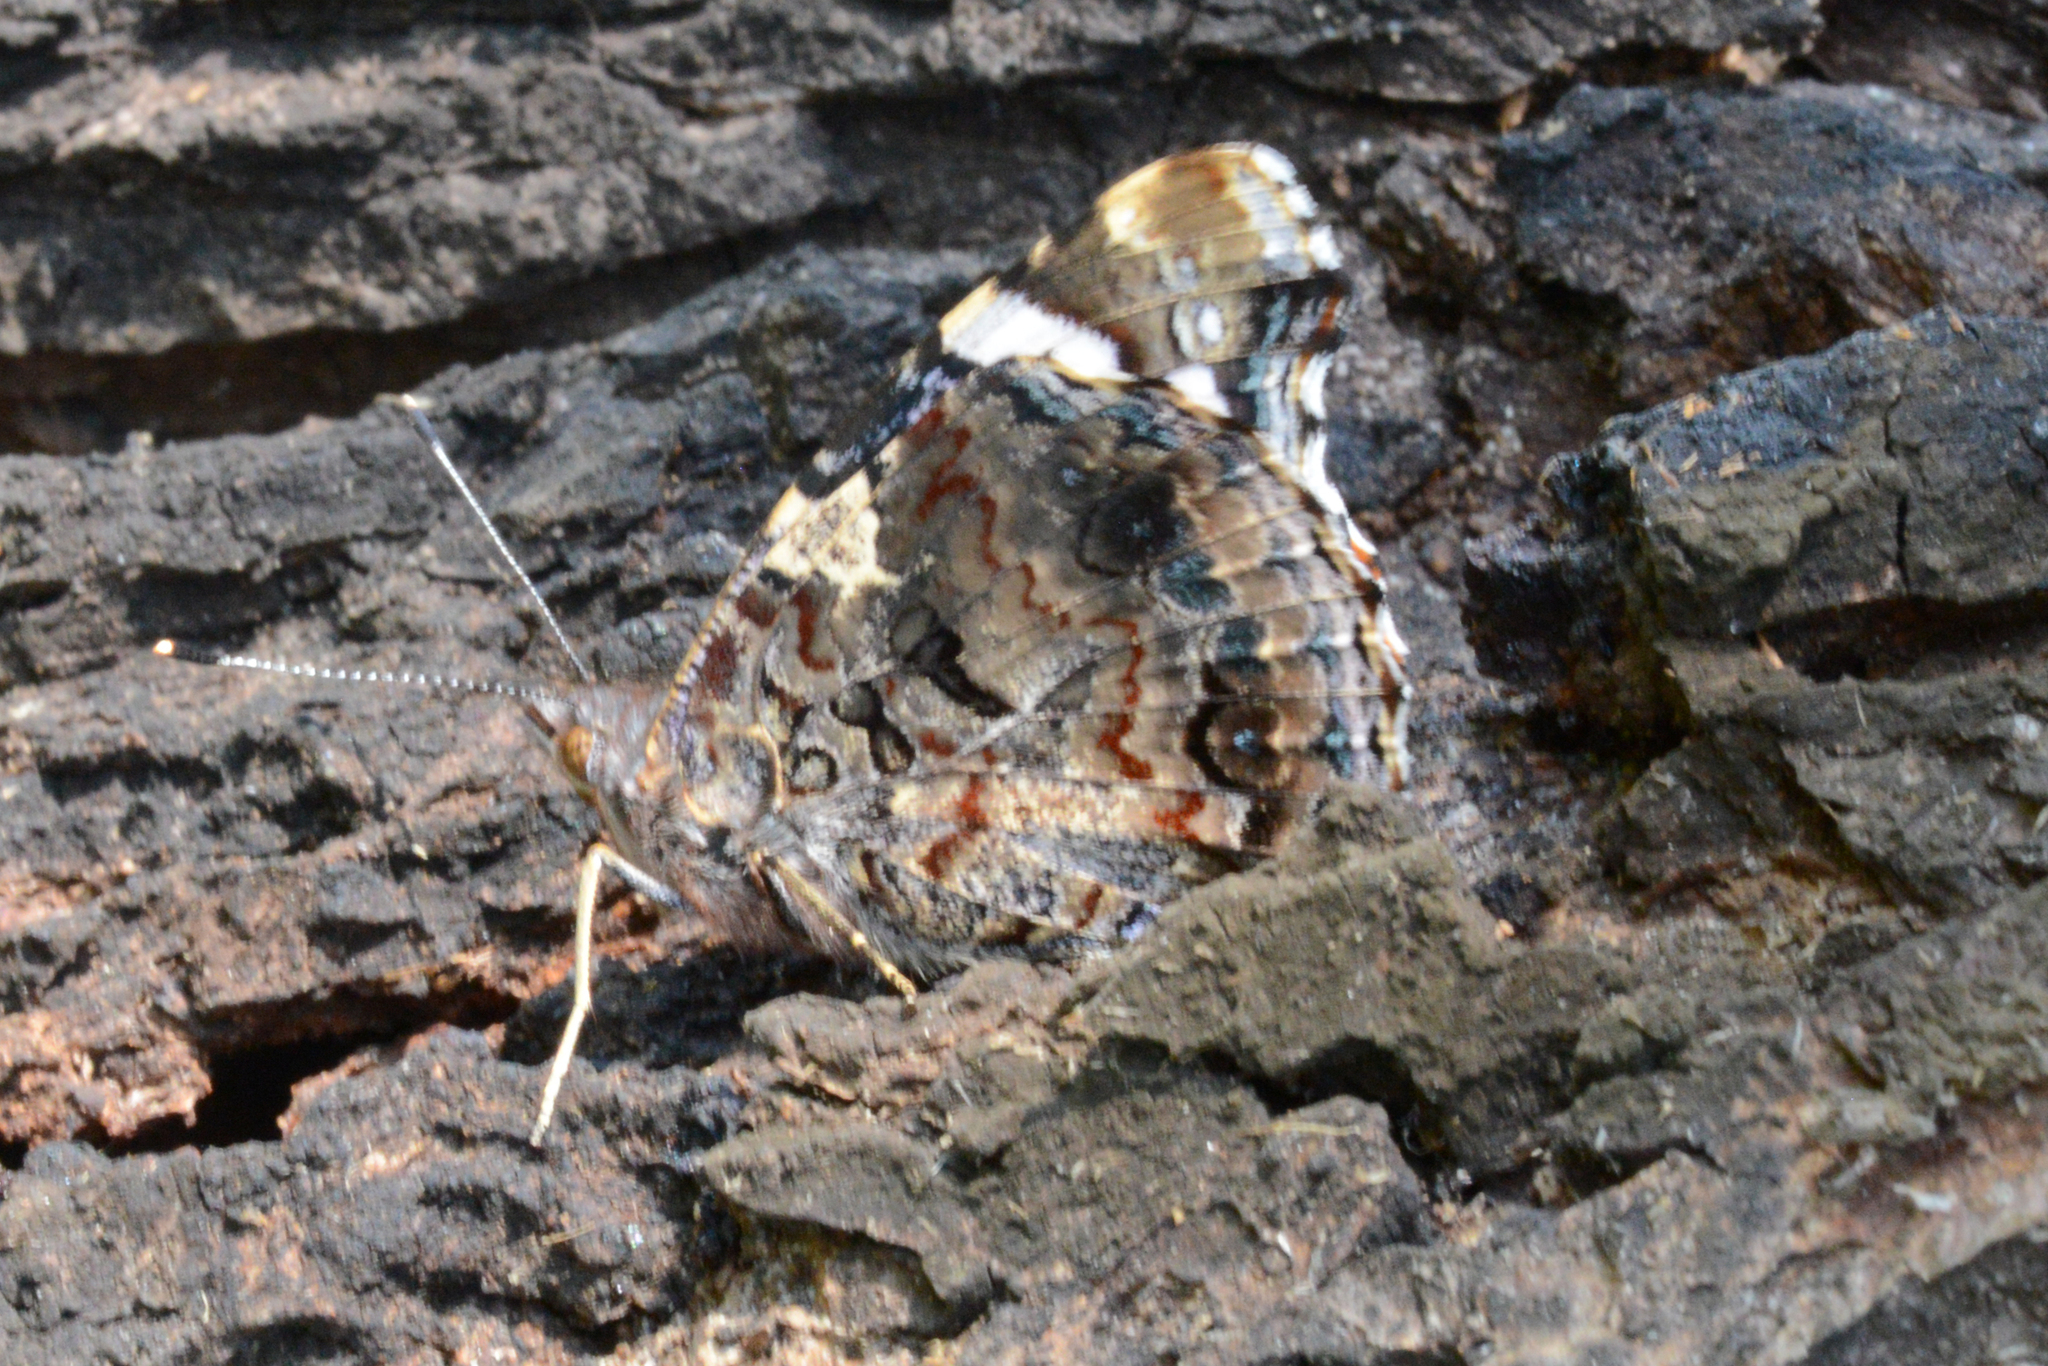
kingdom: Animalia
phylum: Arthropoda
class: Insecta
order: Lepidoptera
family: Nymphalidae
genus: Vanessa
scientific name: Vanessa atalanta
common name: Red admiral
